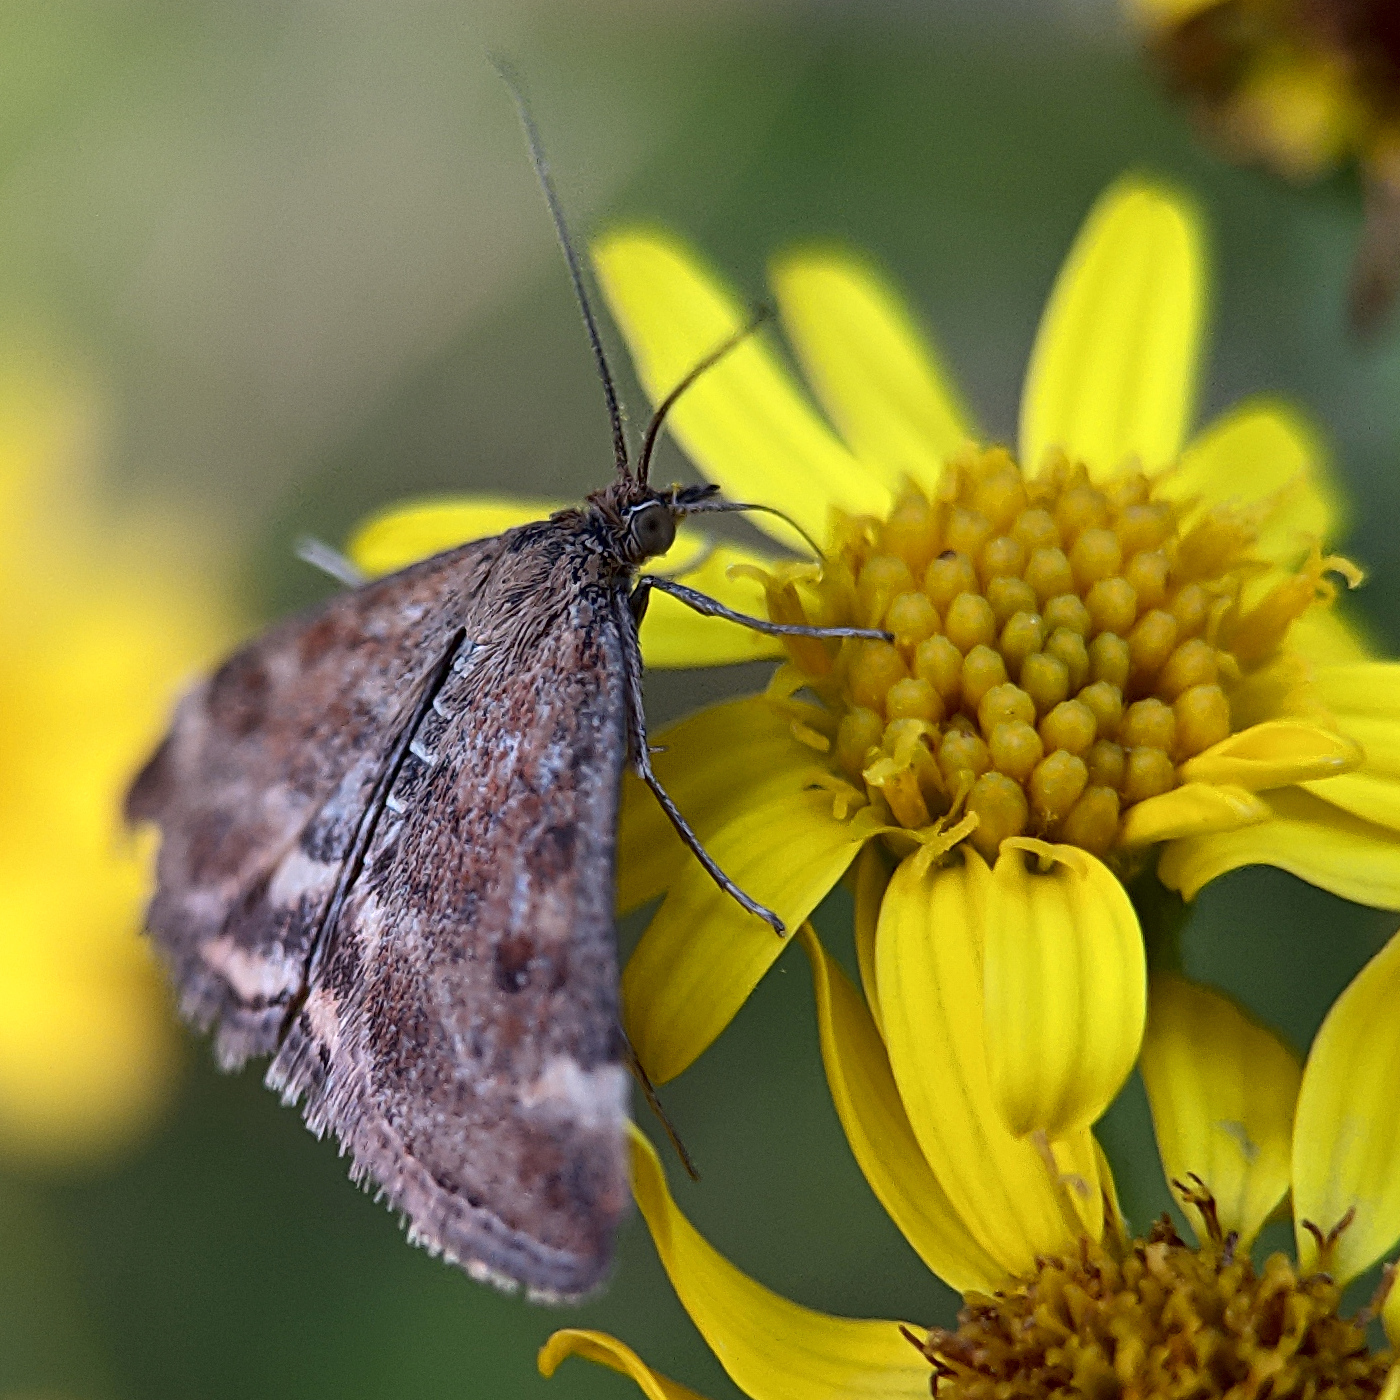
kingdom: Animalia
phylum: Arthropoda
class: Insecta
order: Lepidoptera
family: Crambidae
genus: Pyrausta
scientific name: Pyrausta despicata
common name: Straw-barred pearl
